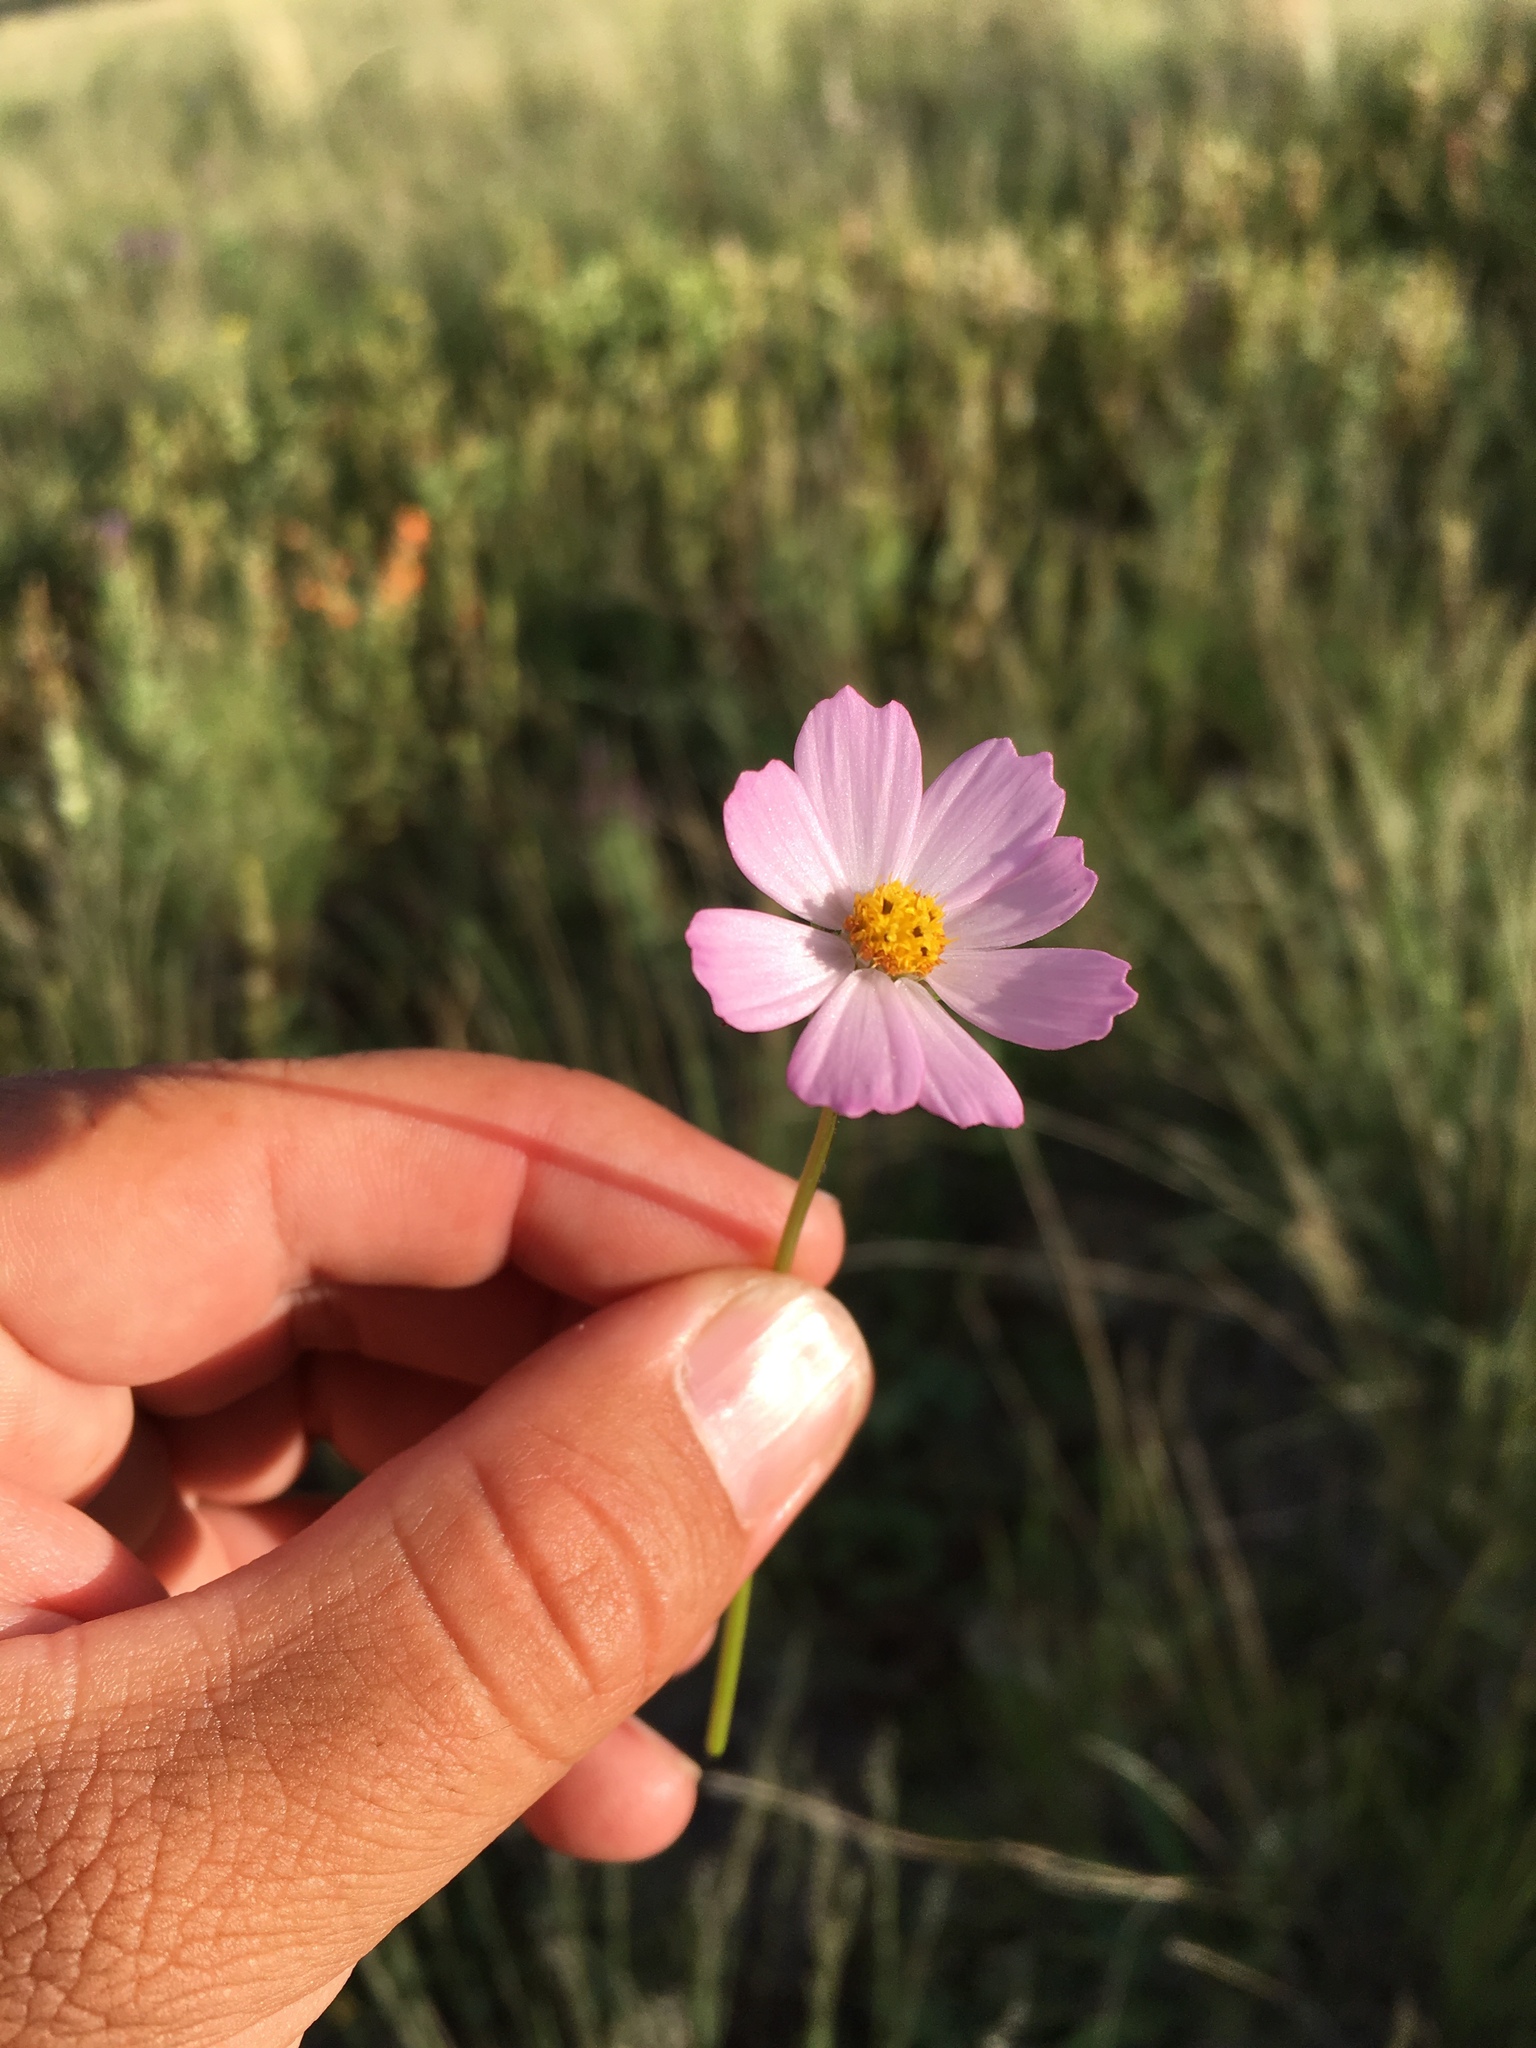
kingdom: Plantae
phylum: Tracheophyta
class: Magnoliopsida
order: Asterales
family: Asteraceae
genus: Cosmos
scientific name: Cosmos parviflorus
